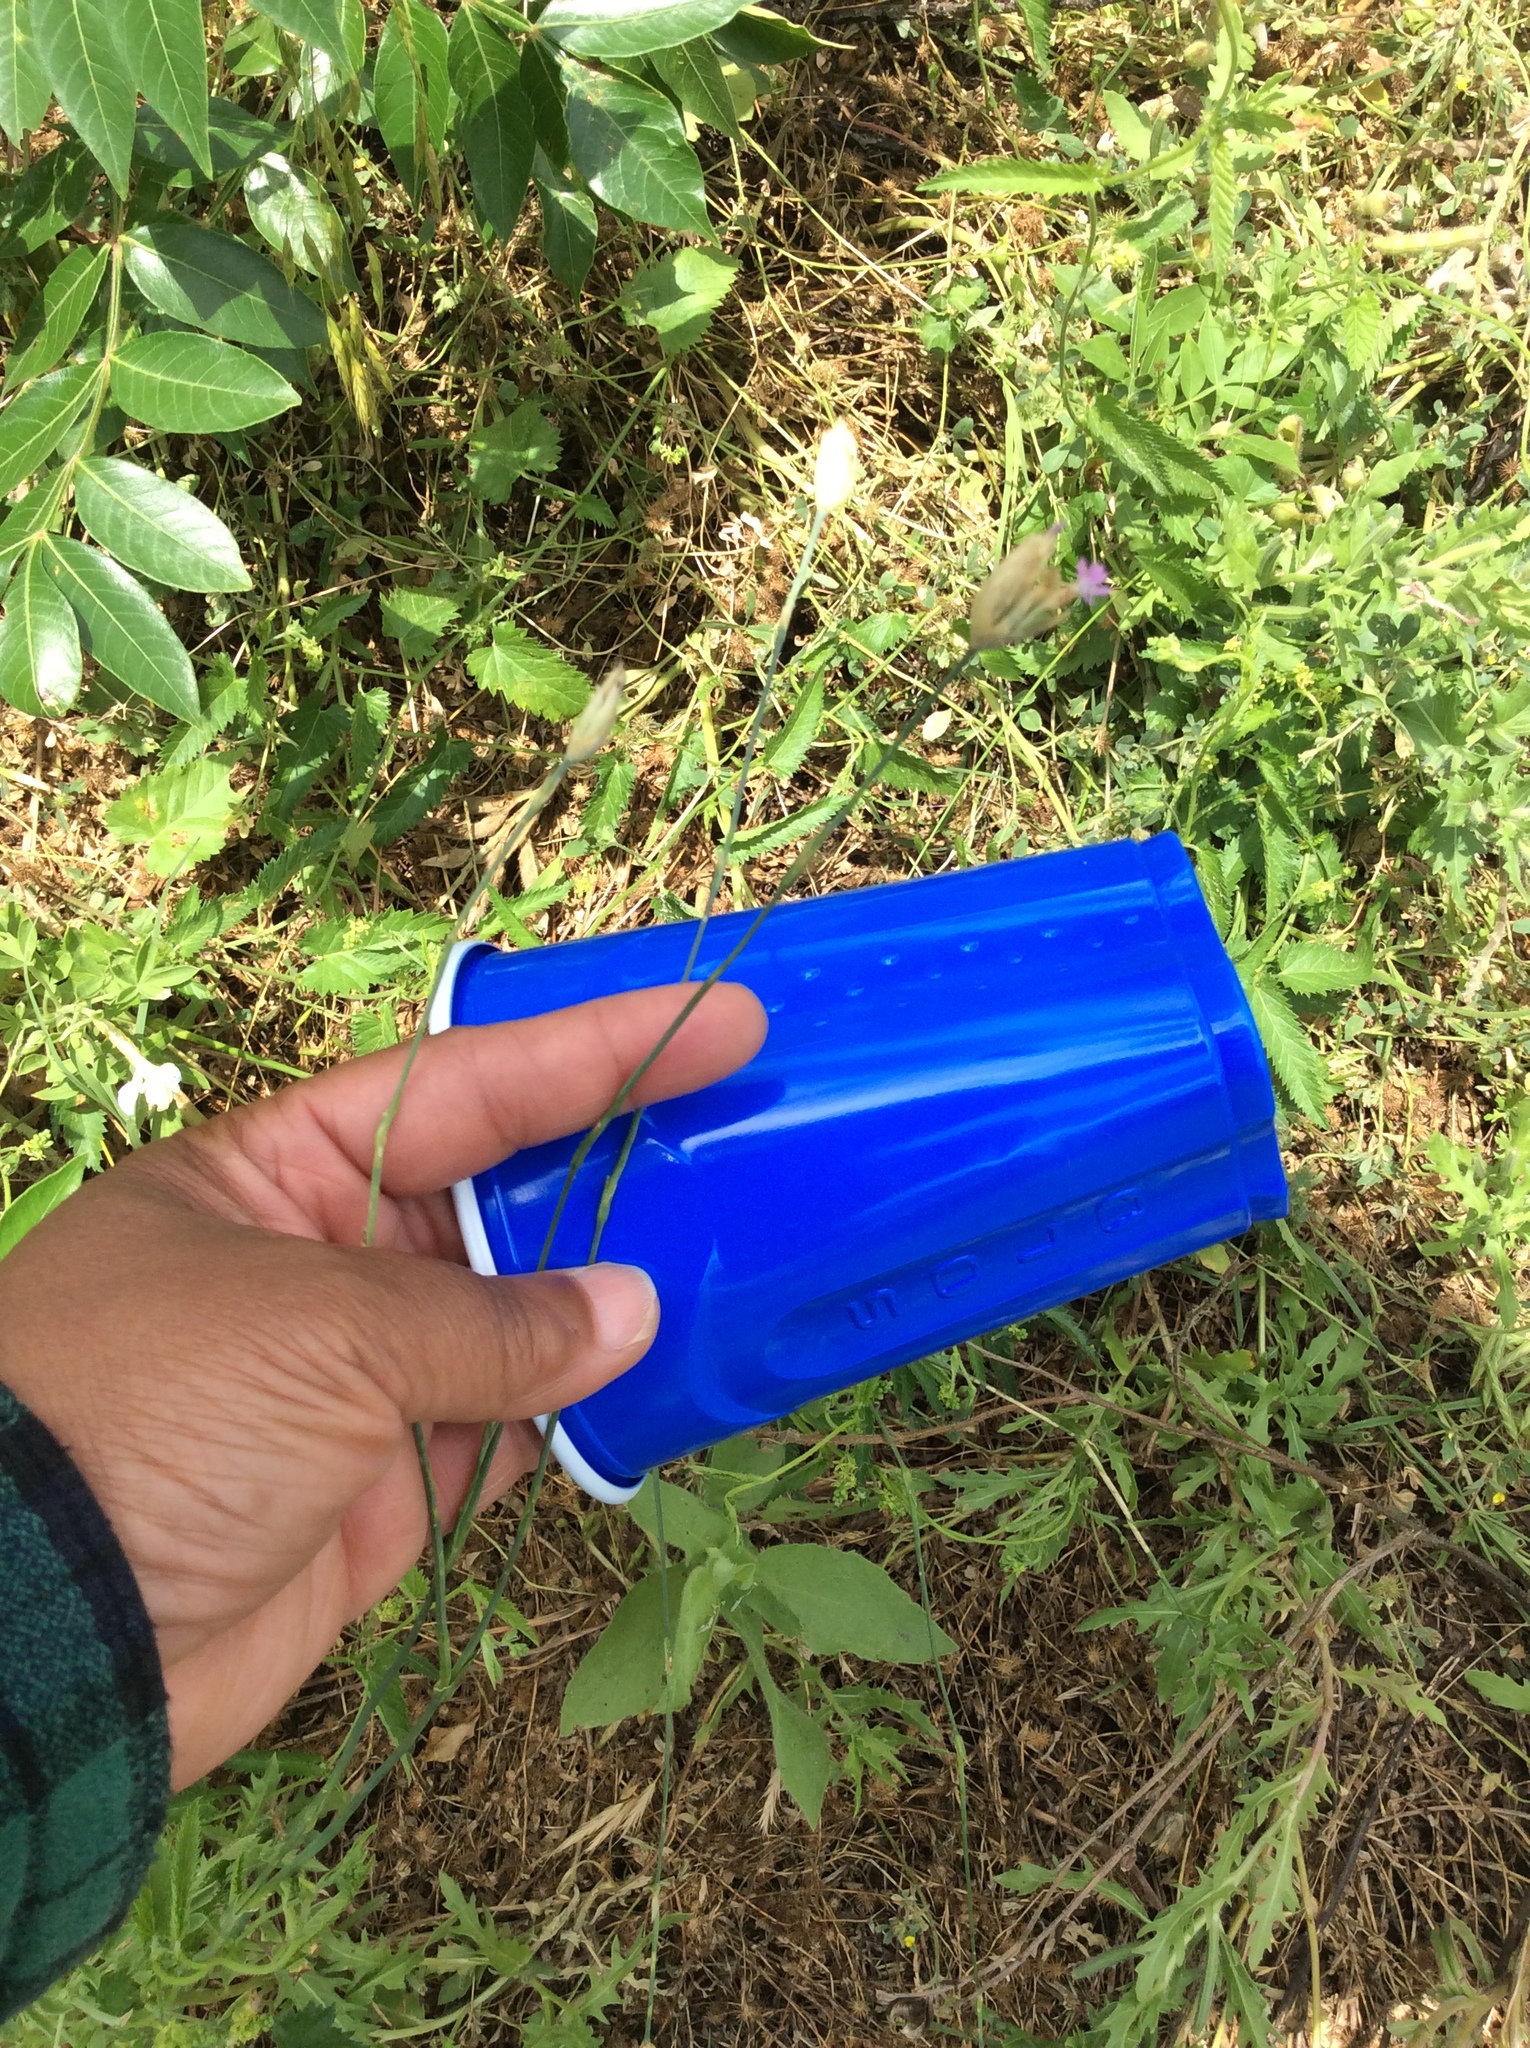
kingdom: Plantae
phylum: Tracheophyta
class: Magnoliopsida
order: Caryophyllales
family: Caryophyllaceae
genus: Petrorhagia
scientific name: Petrorhagia dubia
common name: Hairypink
